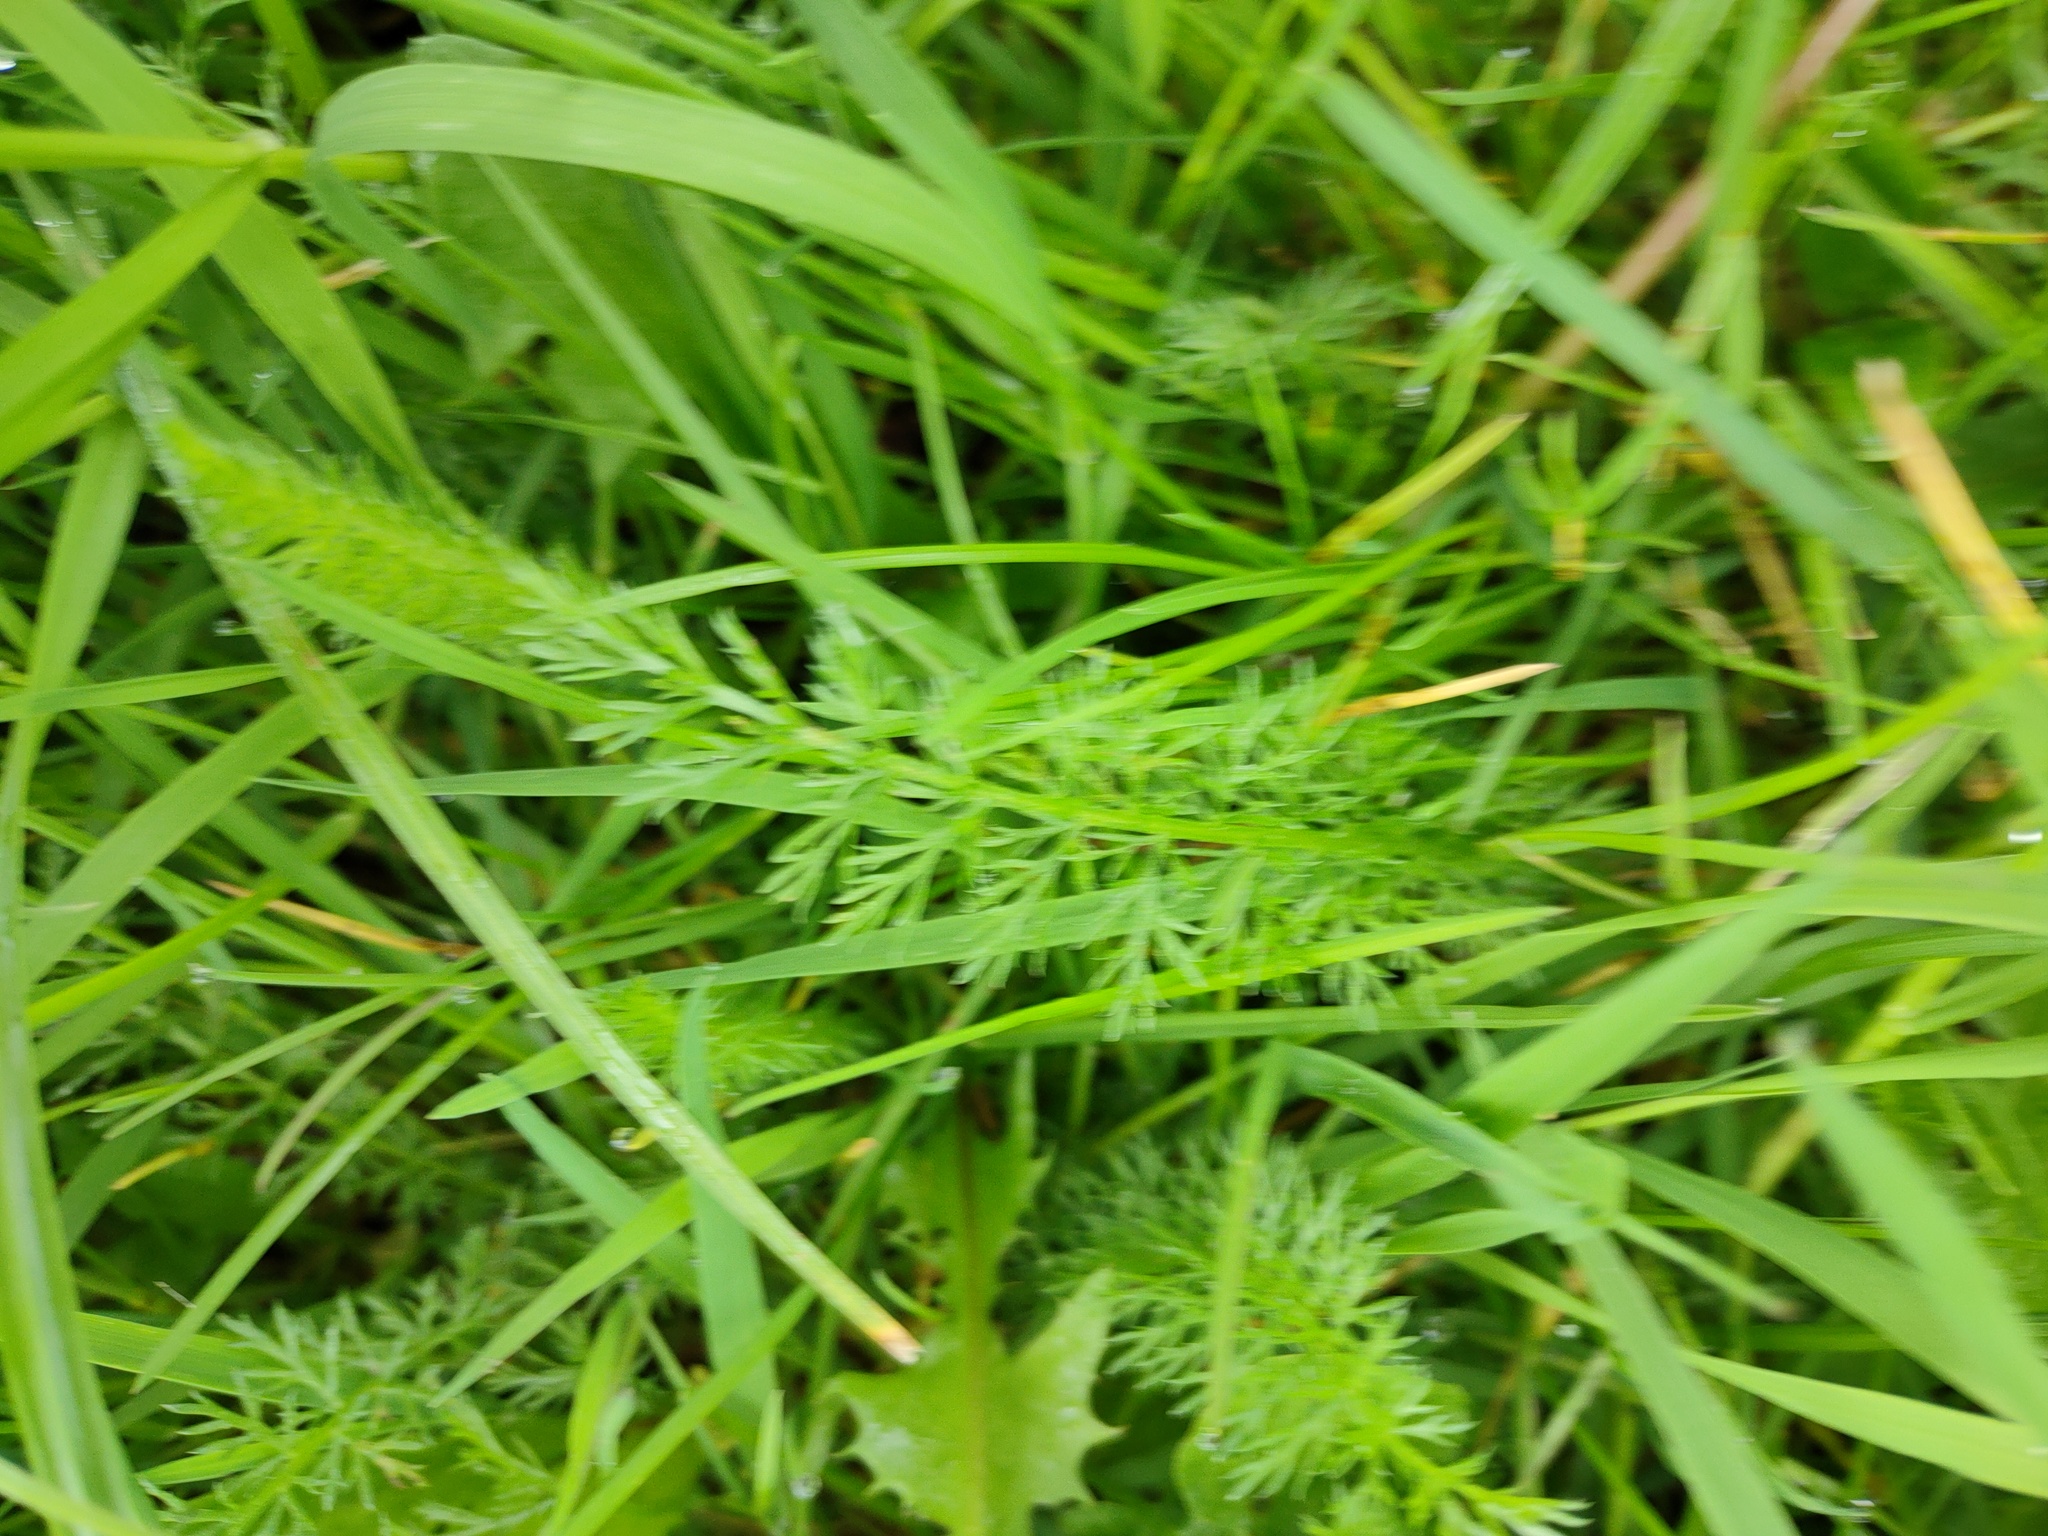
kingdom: Plantae
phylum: Tracheophyta
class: Magnoliopsida
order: Asterales
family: Asteraceae
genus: Achillea
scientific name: Achillea millefolium
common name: Yarrow
